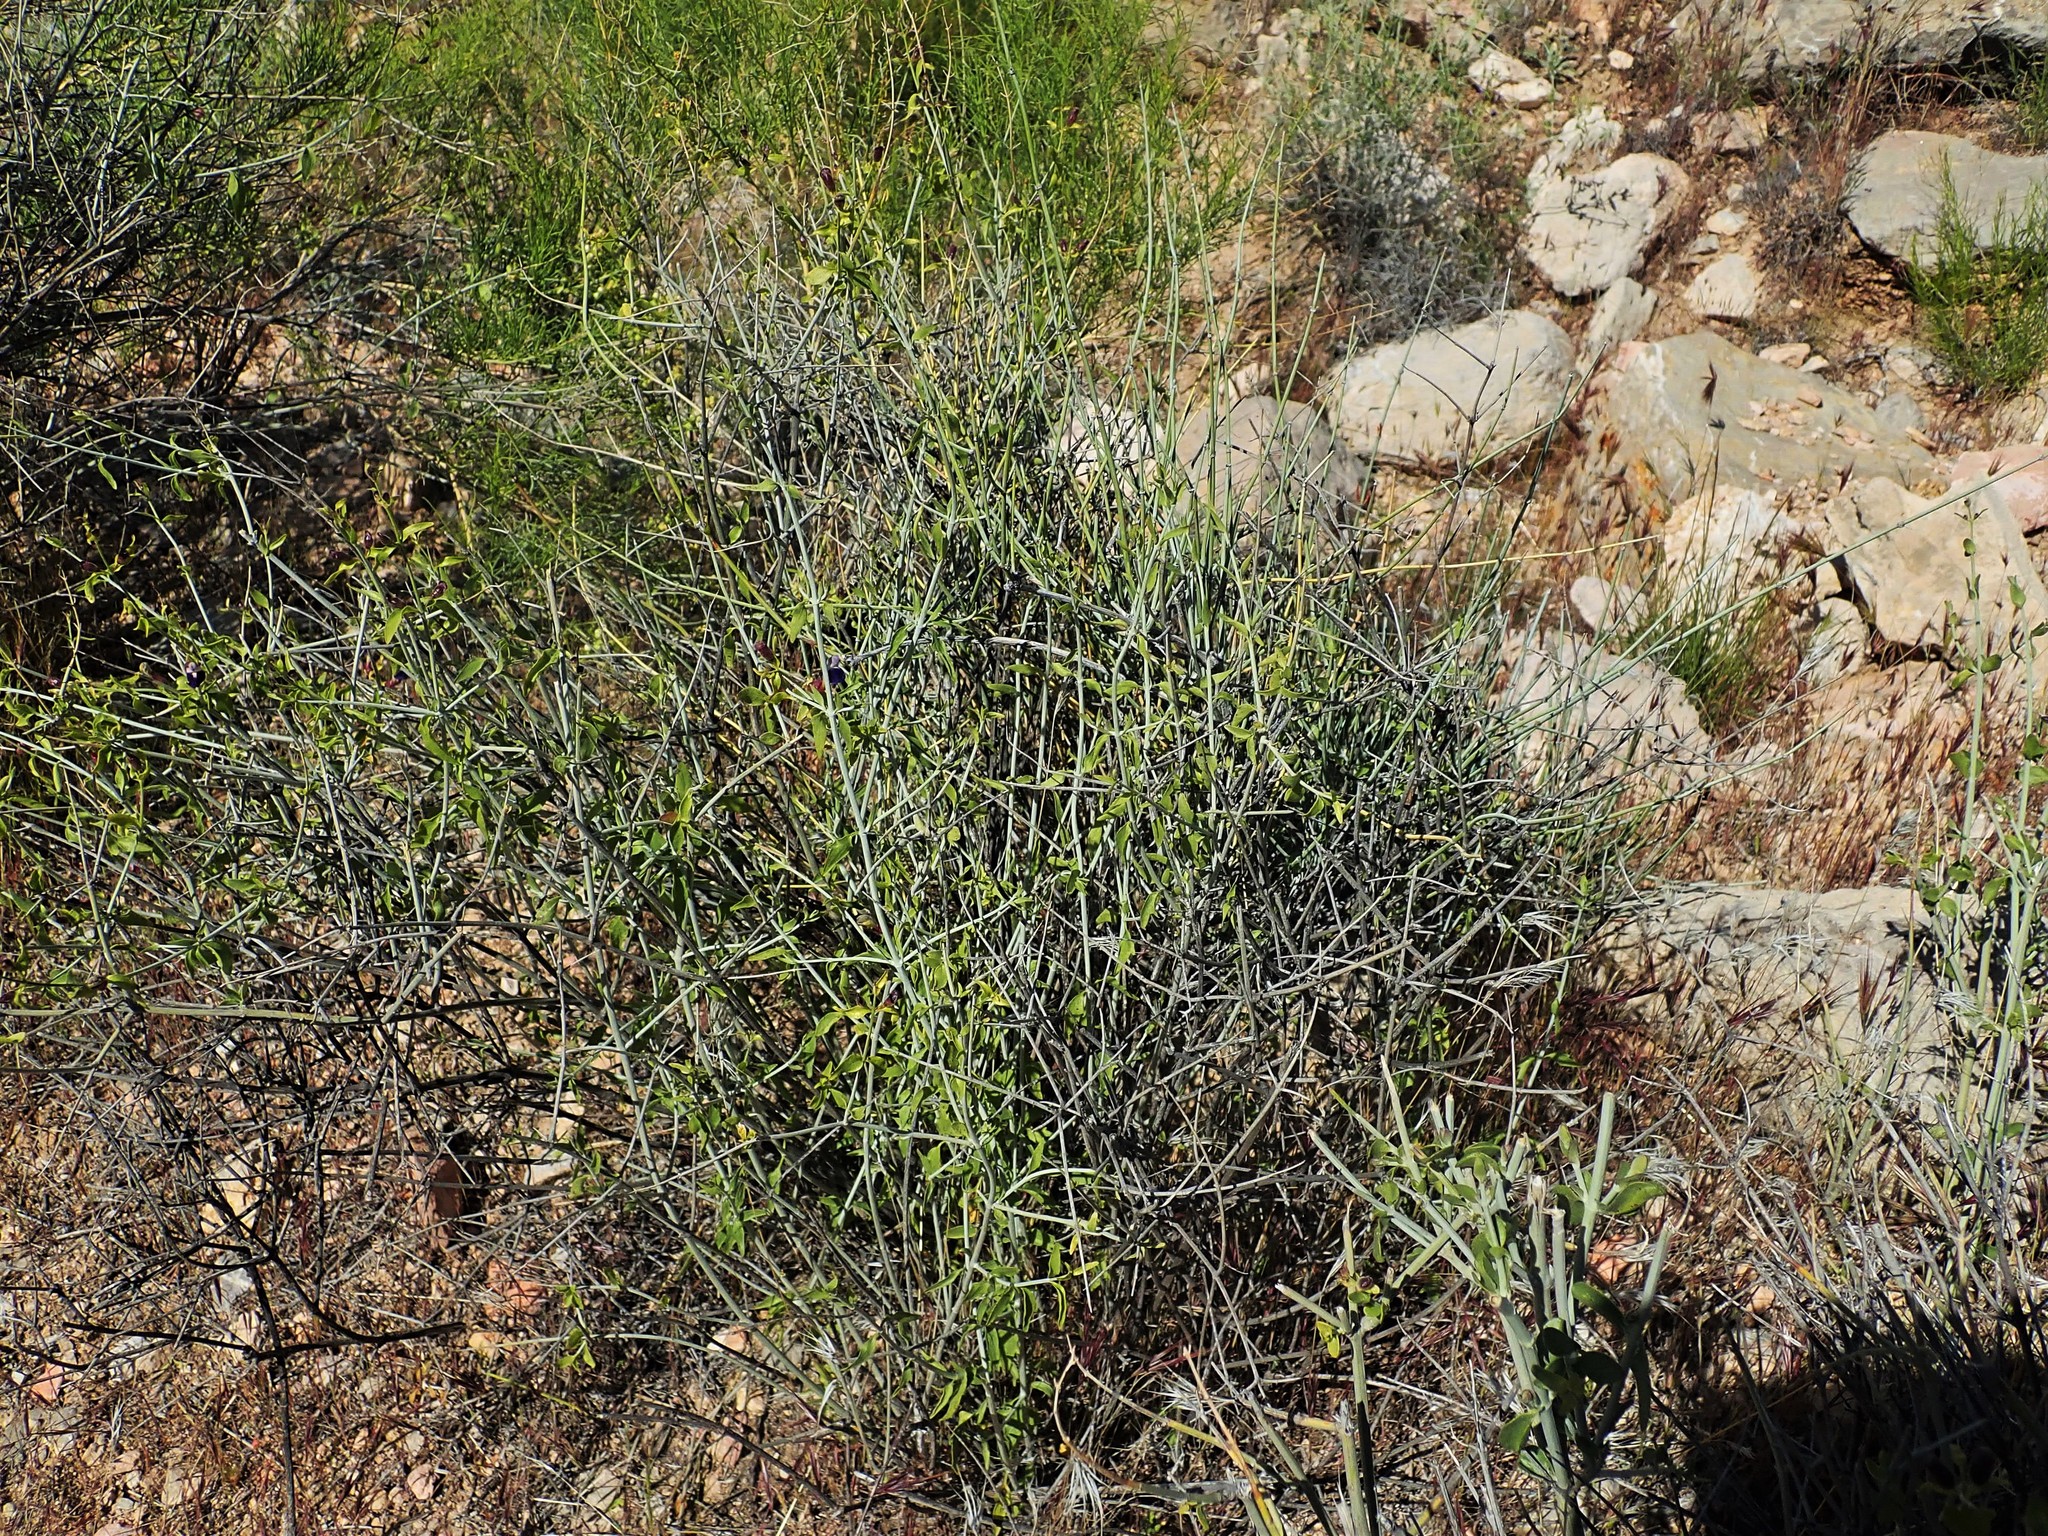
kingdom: Plantae
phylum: Tracheophyta
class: Magnoliopsida
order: Lamiales
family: Lamiaceae
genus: Scutellaria
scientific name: Scutellaria mexicana
